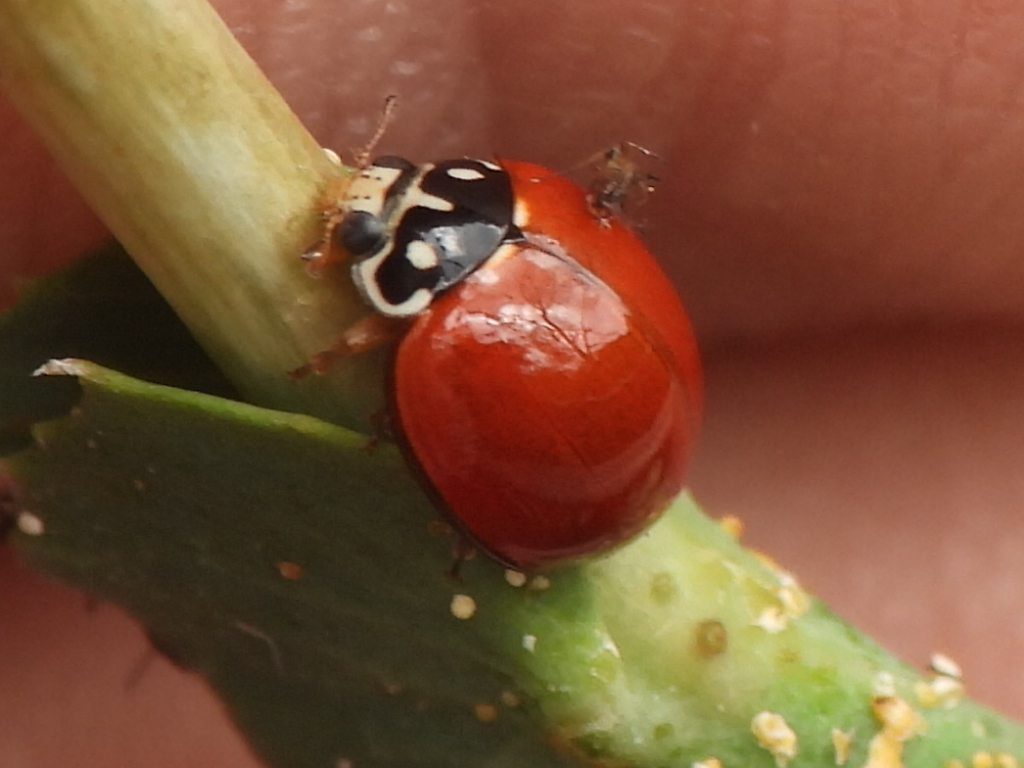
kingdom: Animalia
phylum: Arthropoda
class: Insecta
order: Coleoptera
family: Coccinellidae
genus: Cycloneda
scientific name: Cycloneda sanguinea
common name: Ladybird beetle
